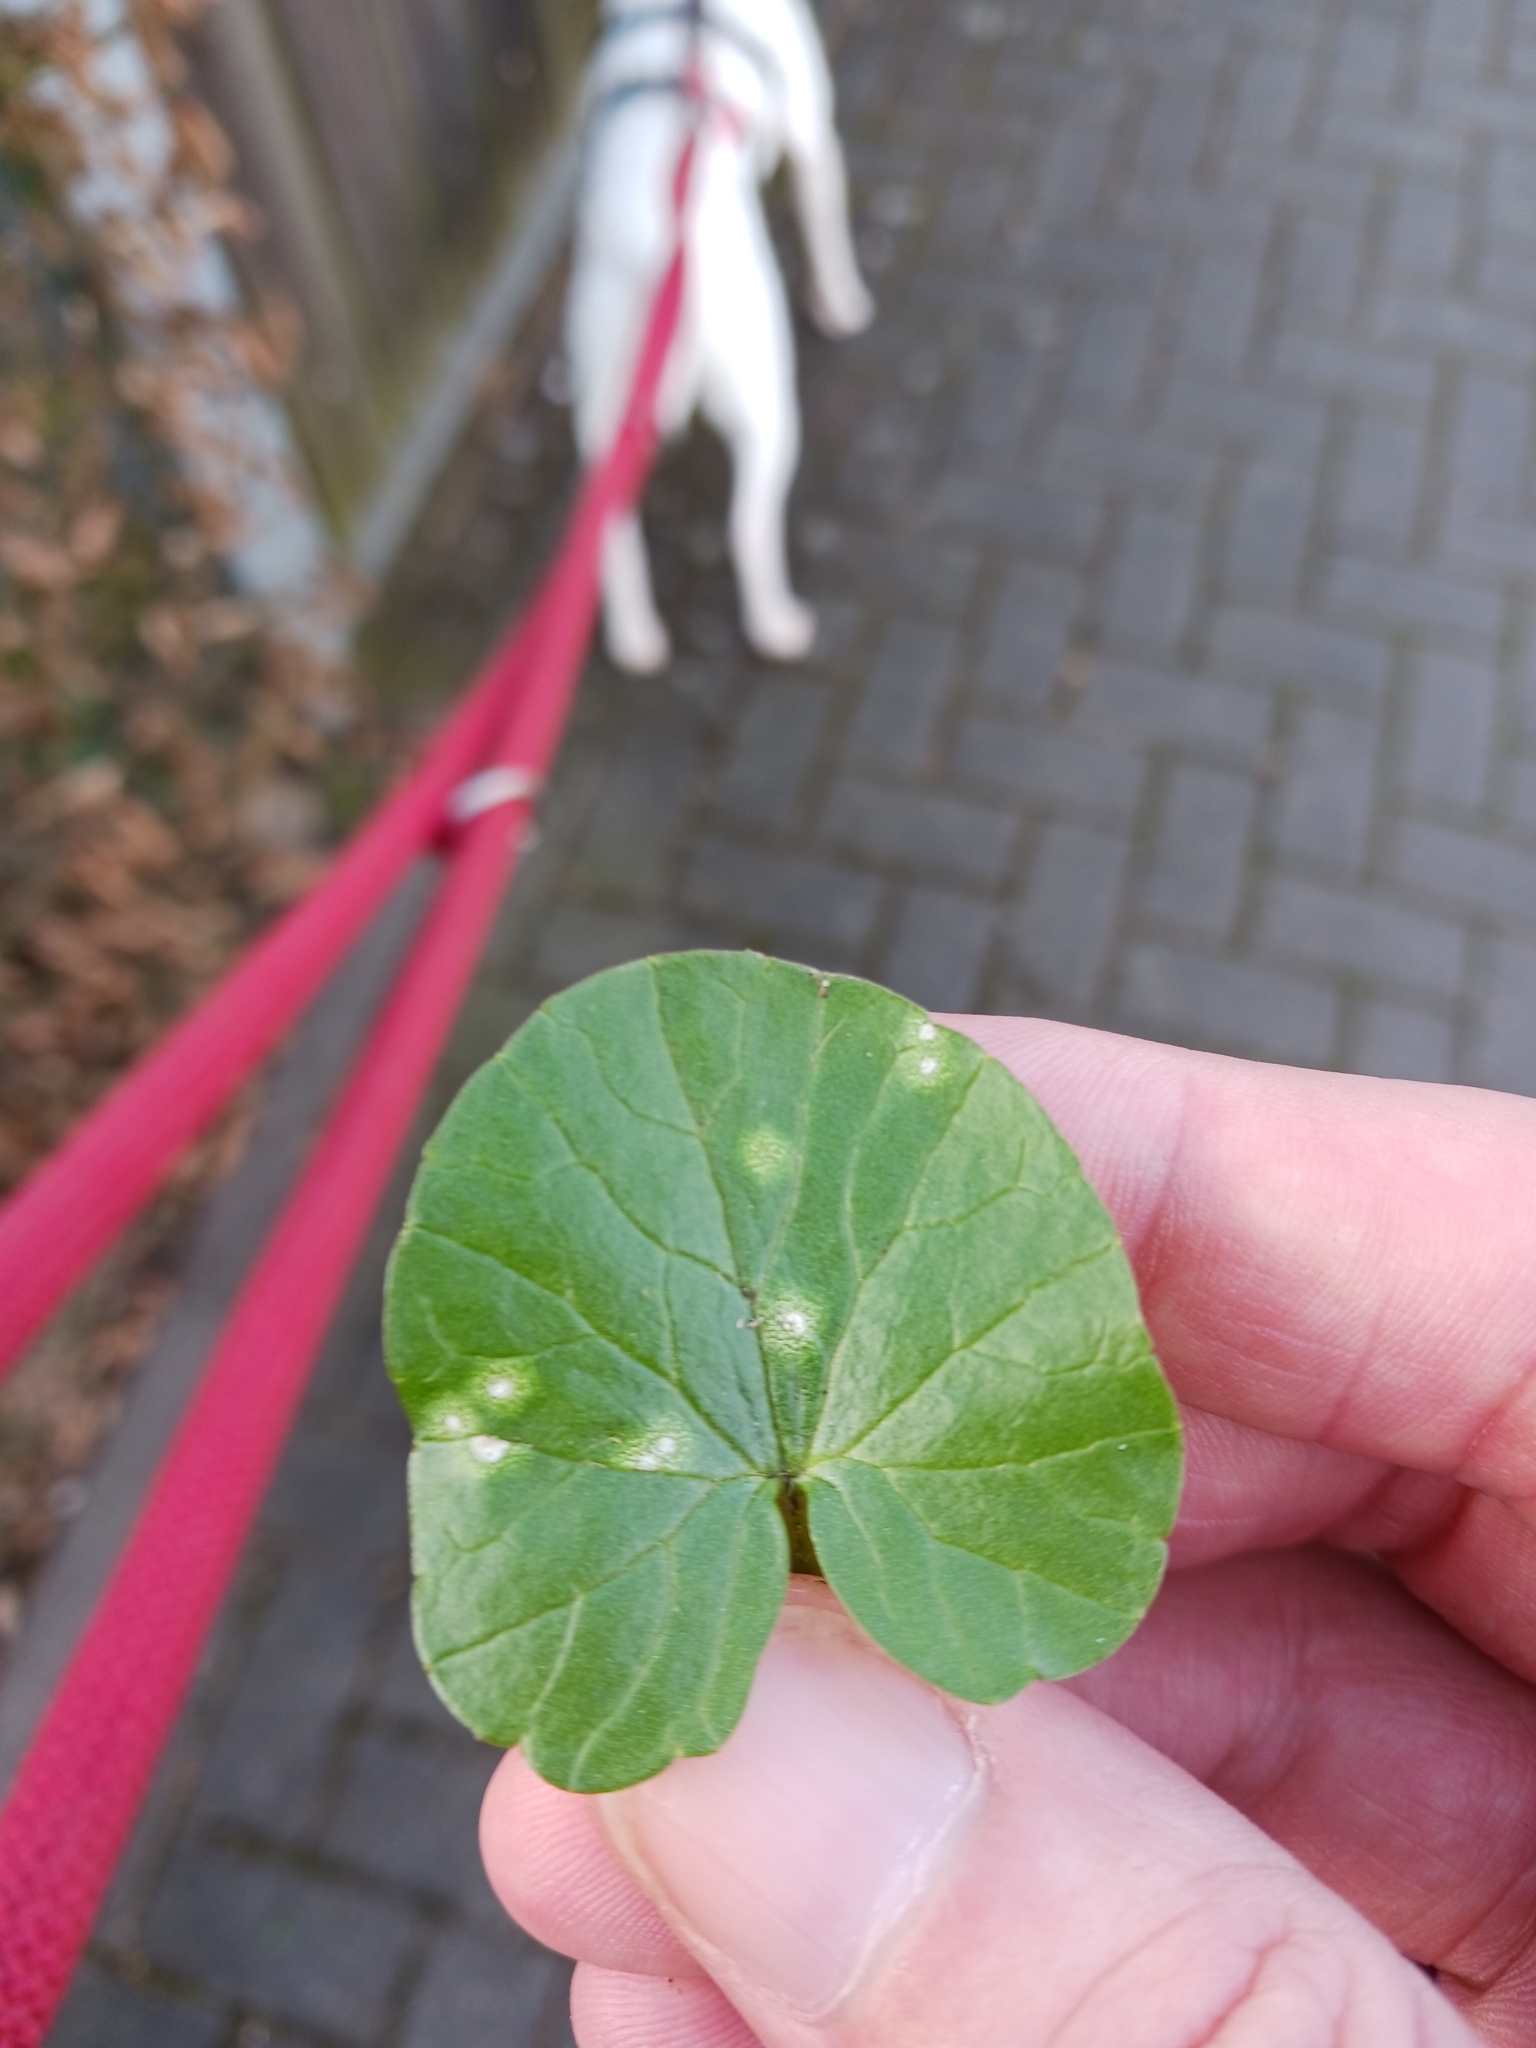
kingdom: Fungi
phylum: Basidiomycota
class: Exobasidiomycetes
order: Entylomatales
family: Entylomataceae
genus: Entyloma
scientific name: Entyloma ficariae
